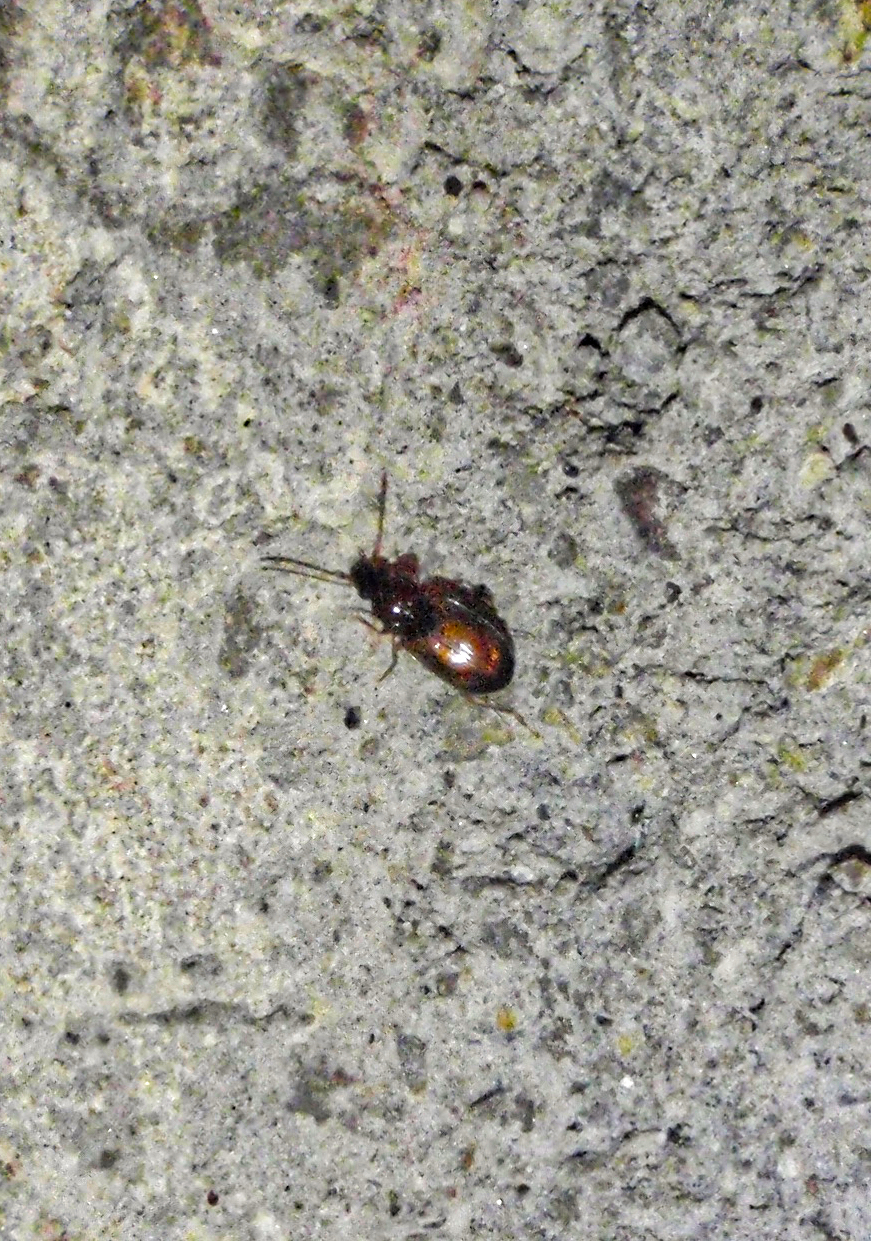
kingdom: Animalia
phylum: Arthropoda
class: Insecta
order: Coleoptera
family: Carabidae
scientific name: Carabidae
